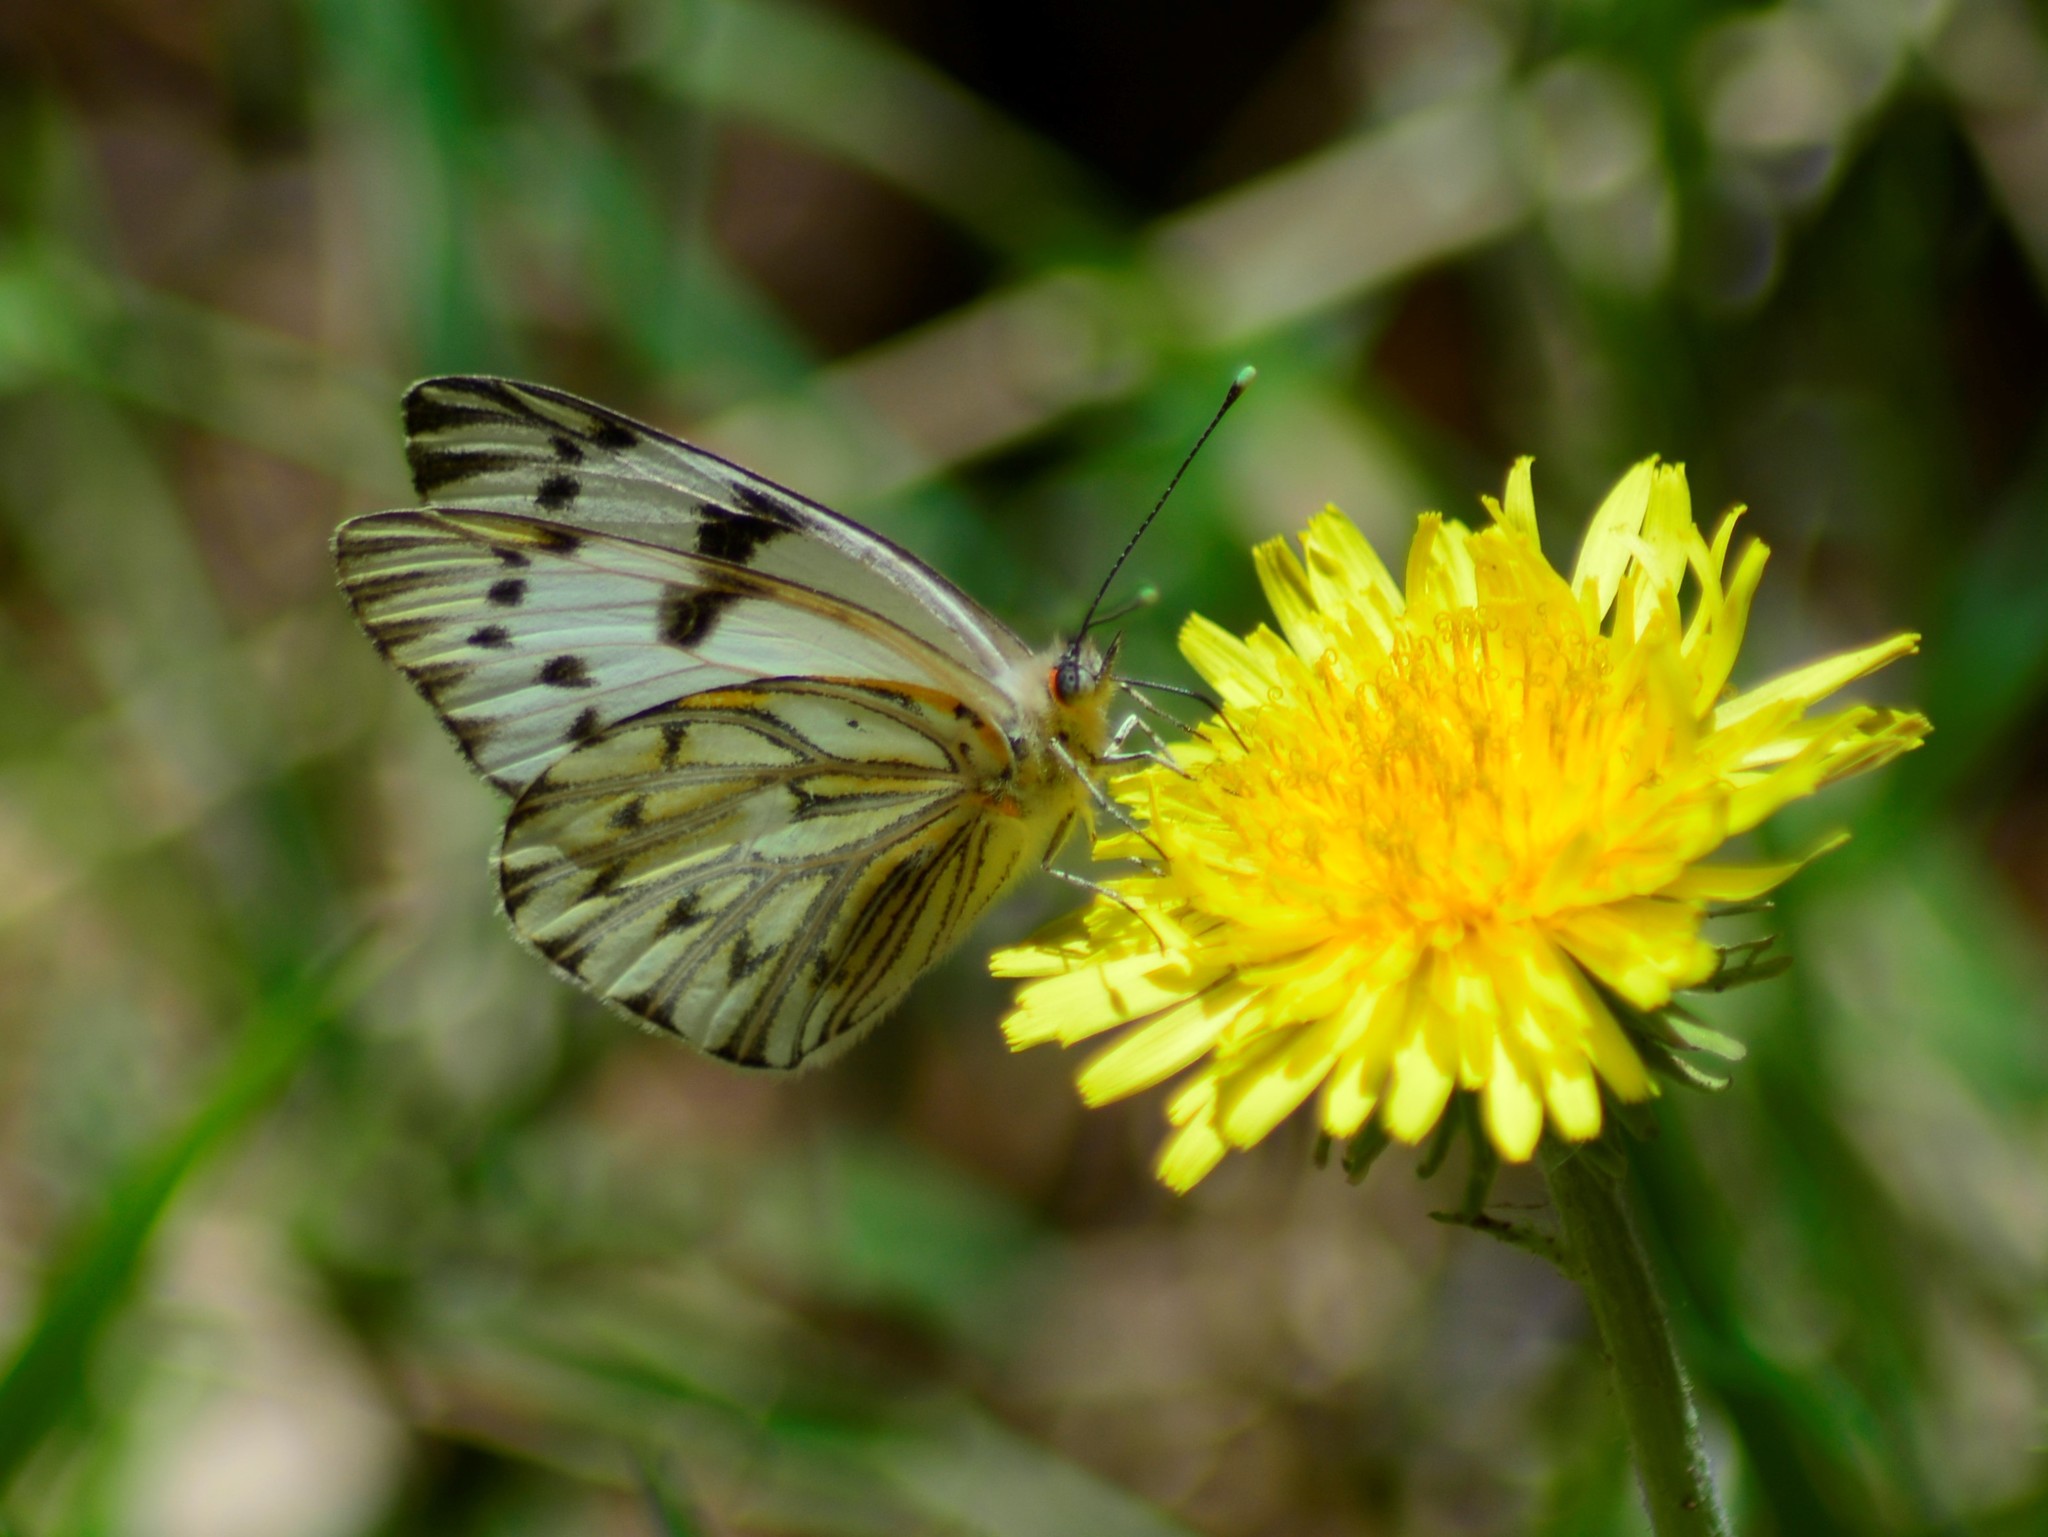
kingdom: Animalia
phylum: Arthropoda
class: Insecta
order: Lepidoptera
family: Pieridae
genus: Tatochila
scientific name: Tatochila autodice
